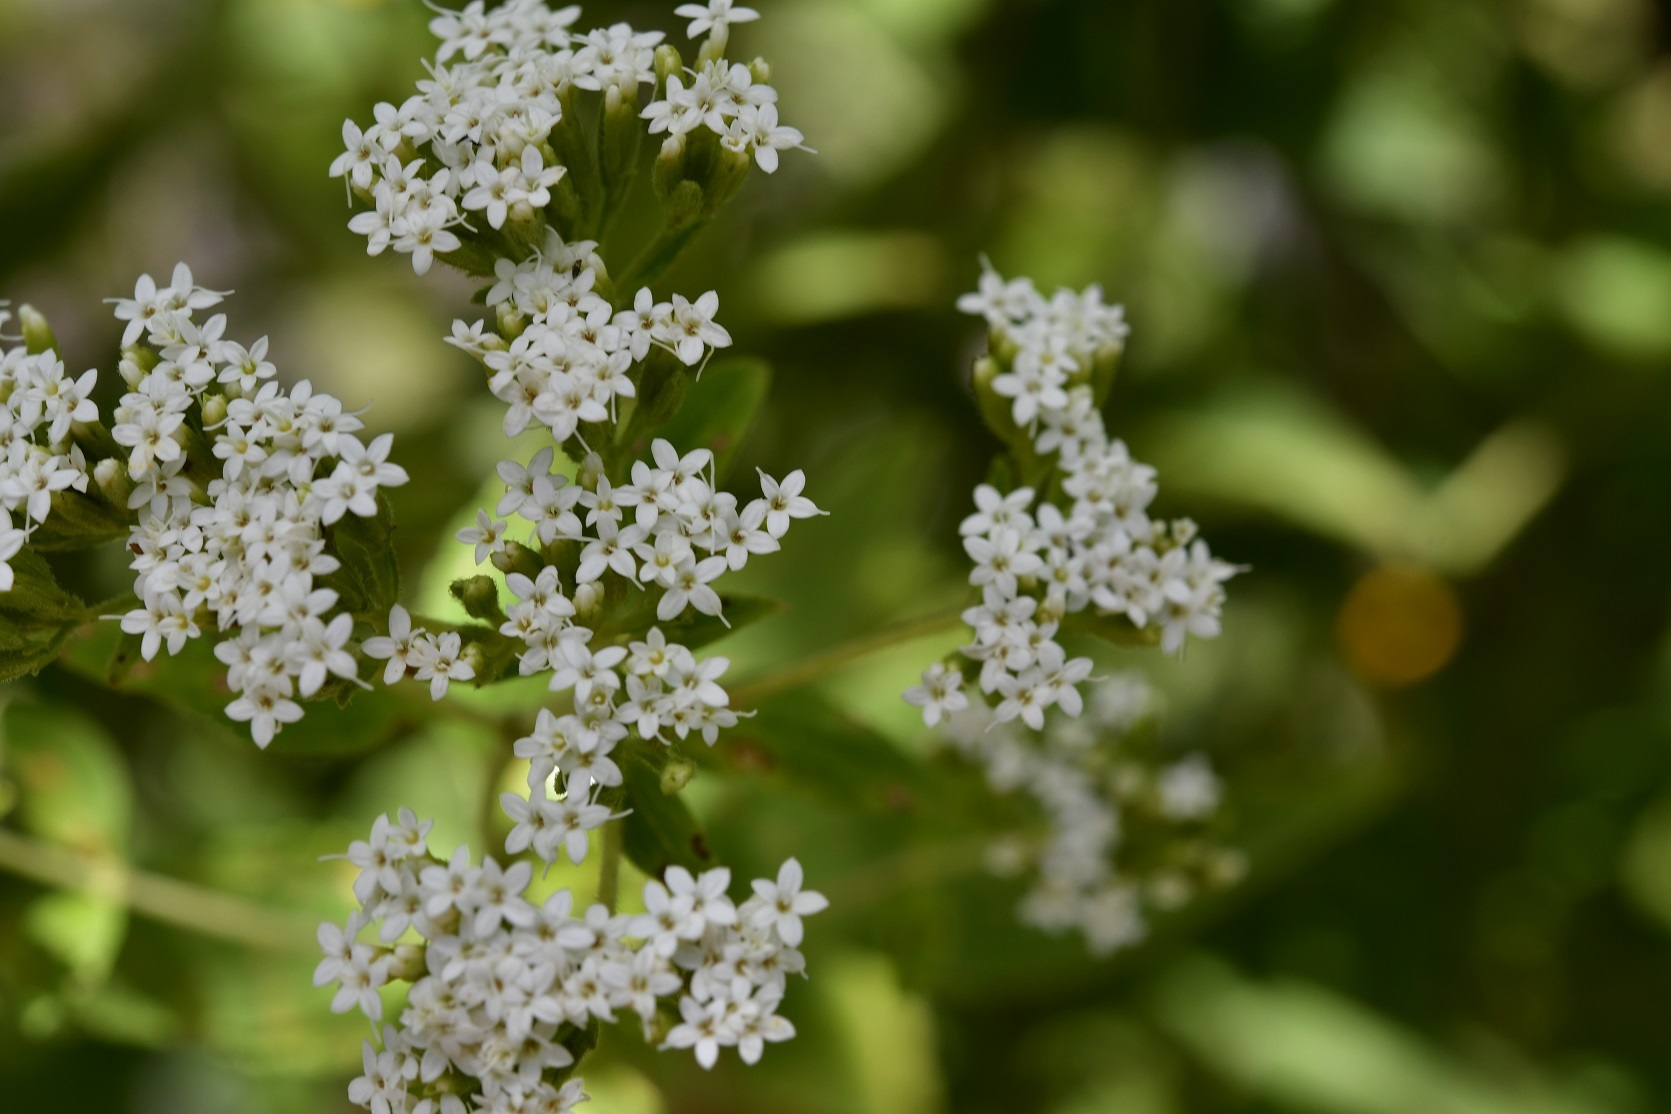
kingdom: Plantae
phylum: Tracheophyta
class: Magnoliopsida
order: Asterales
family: Asteraceae
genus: Stevia
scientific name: Stevia ovata
